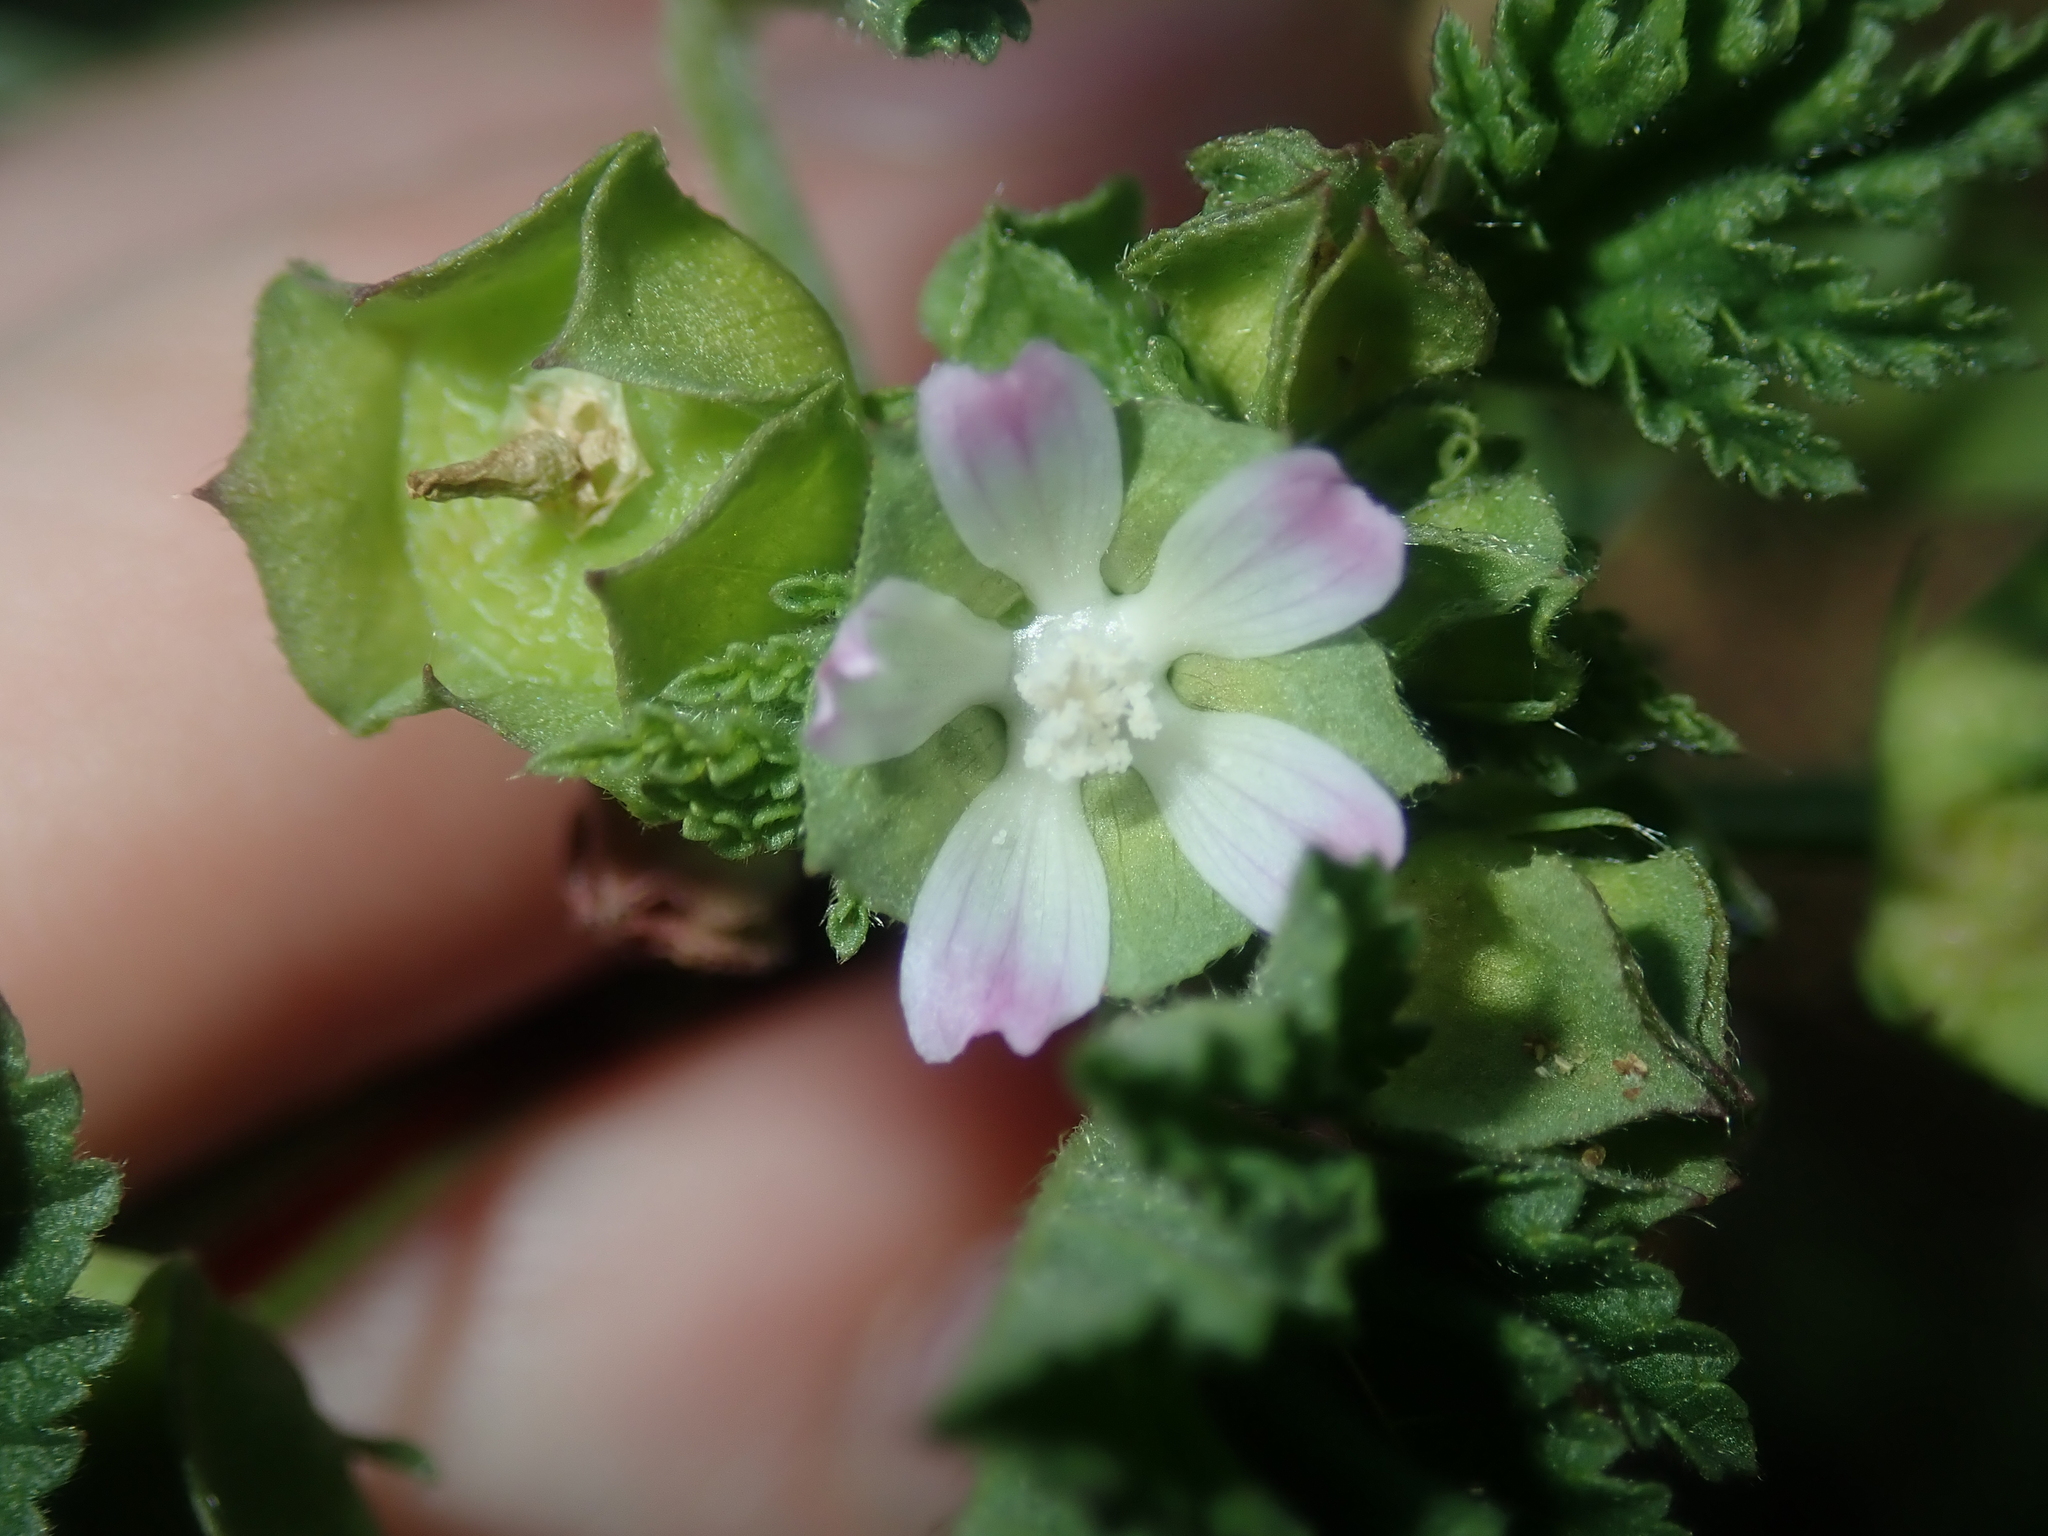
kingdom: Plantae
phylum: Tracheophyta
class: Magnoliopsida
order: Malvales
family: Malvaceae
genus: Malva
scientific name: Malva parviflora
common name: Least mallow
